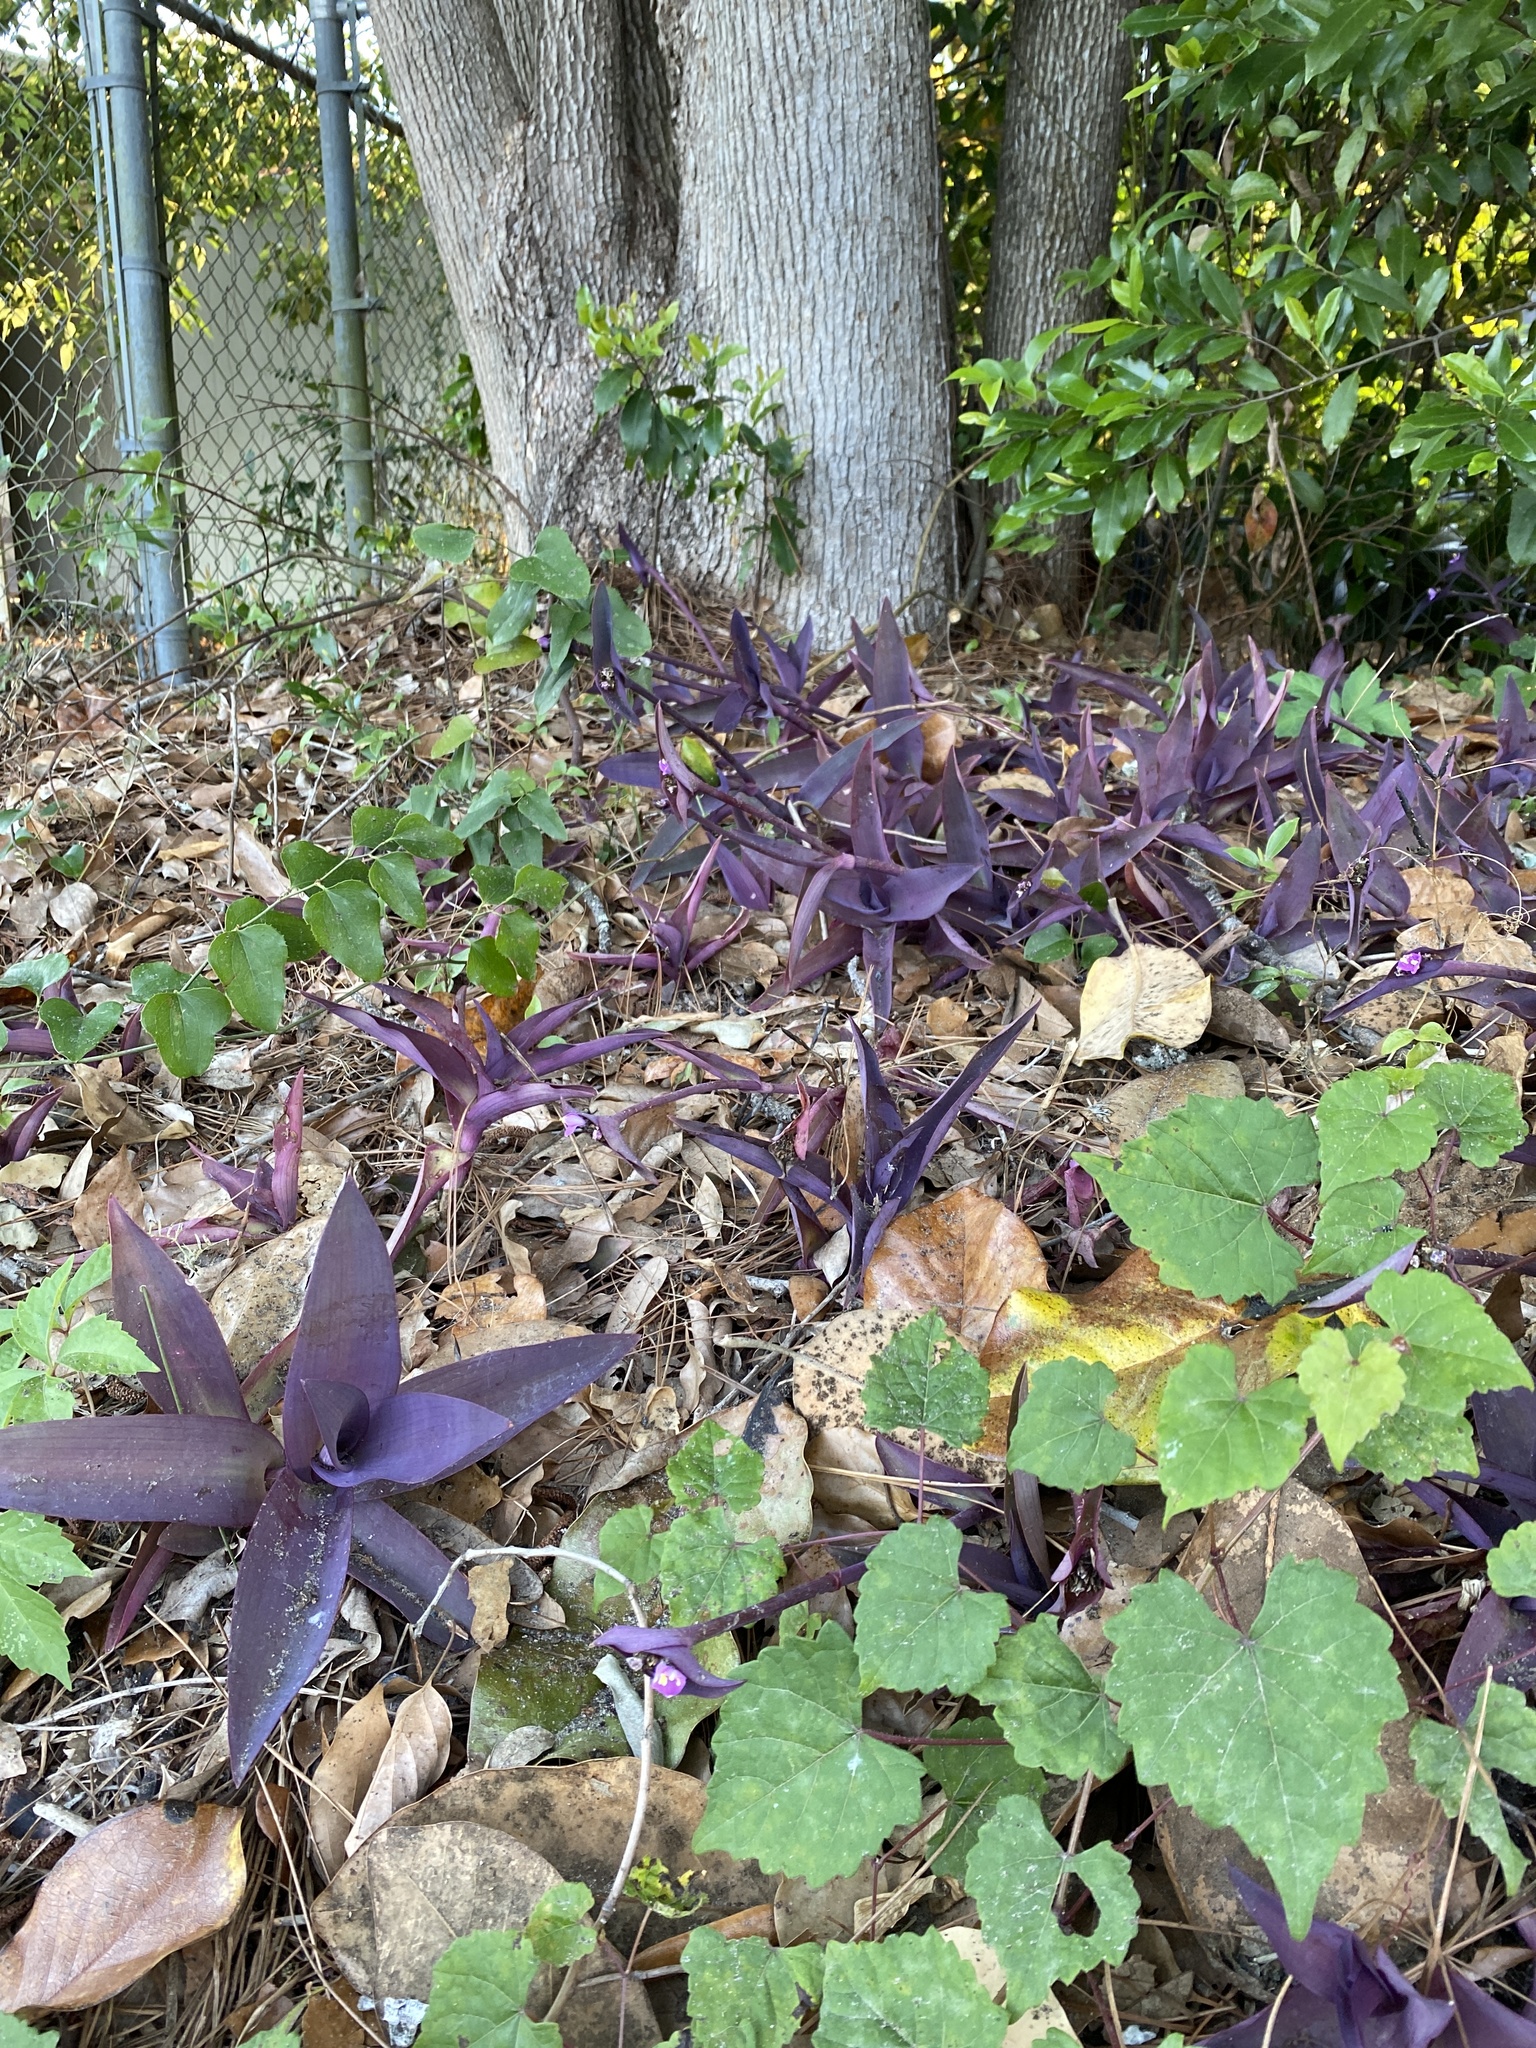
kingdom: Plantae
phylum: Tracheophyta
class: Liliopsida
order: Commelinales
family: Commelinaceae
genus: Tradescantia
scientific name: Tradescantia pallida
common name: Purpleheart
